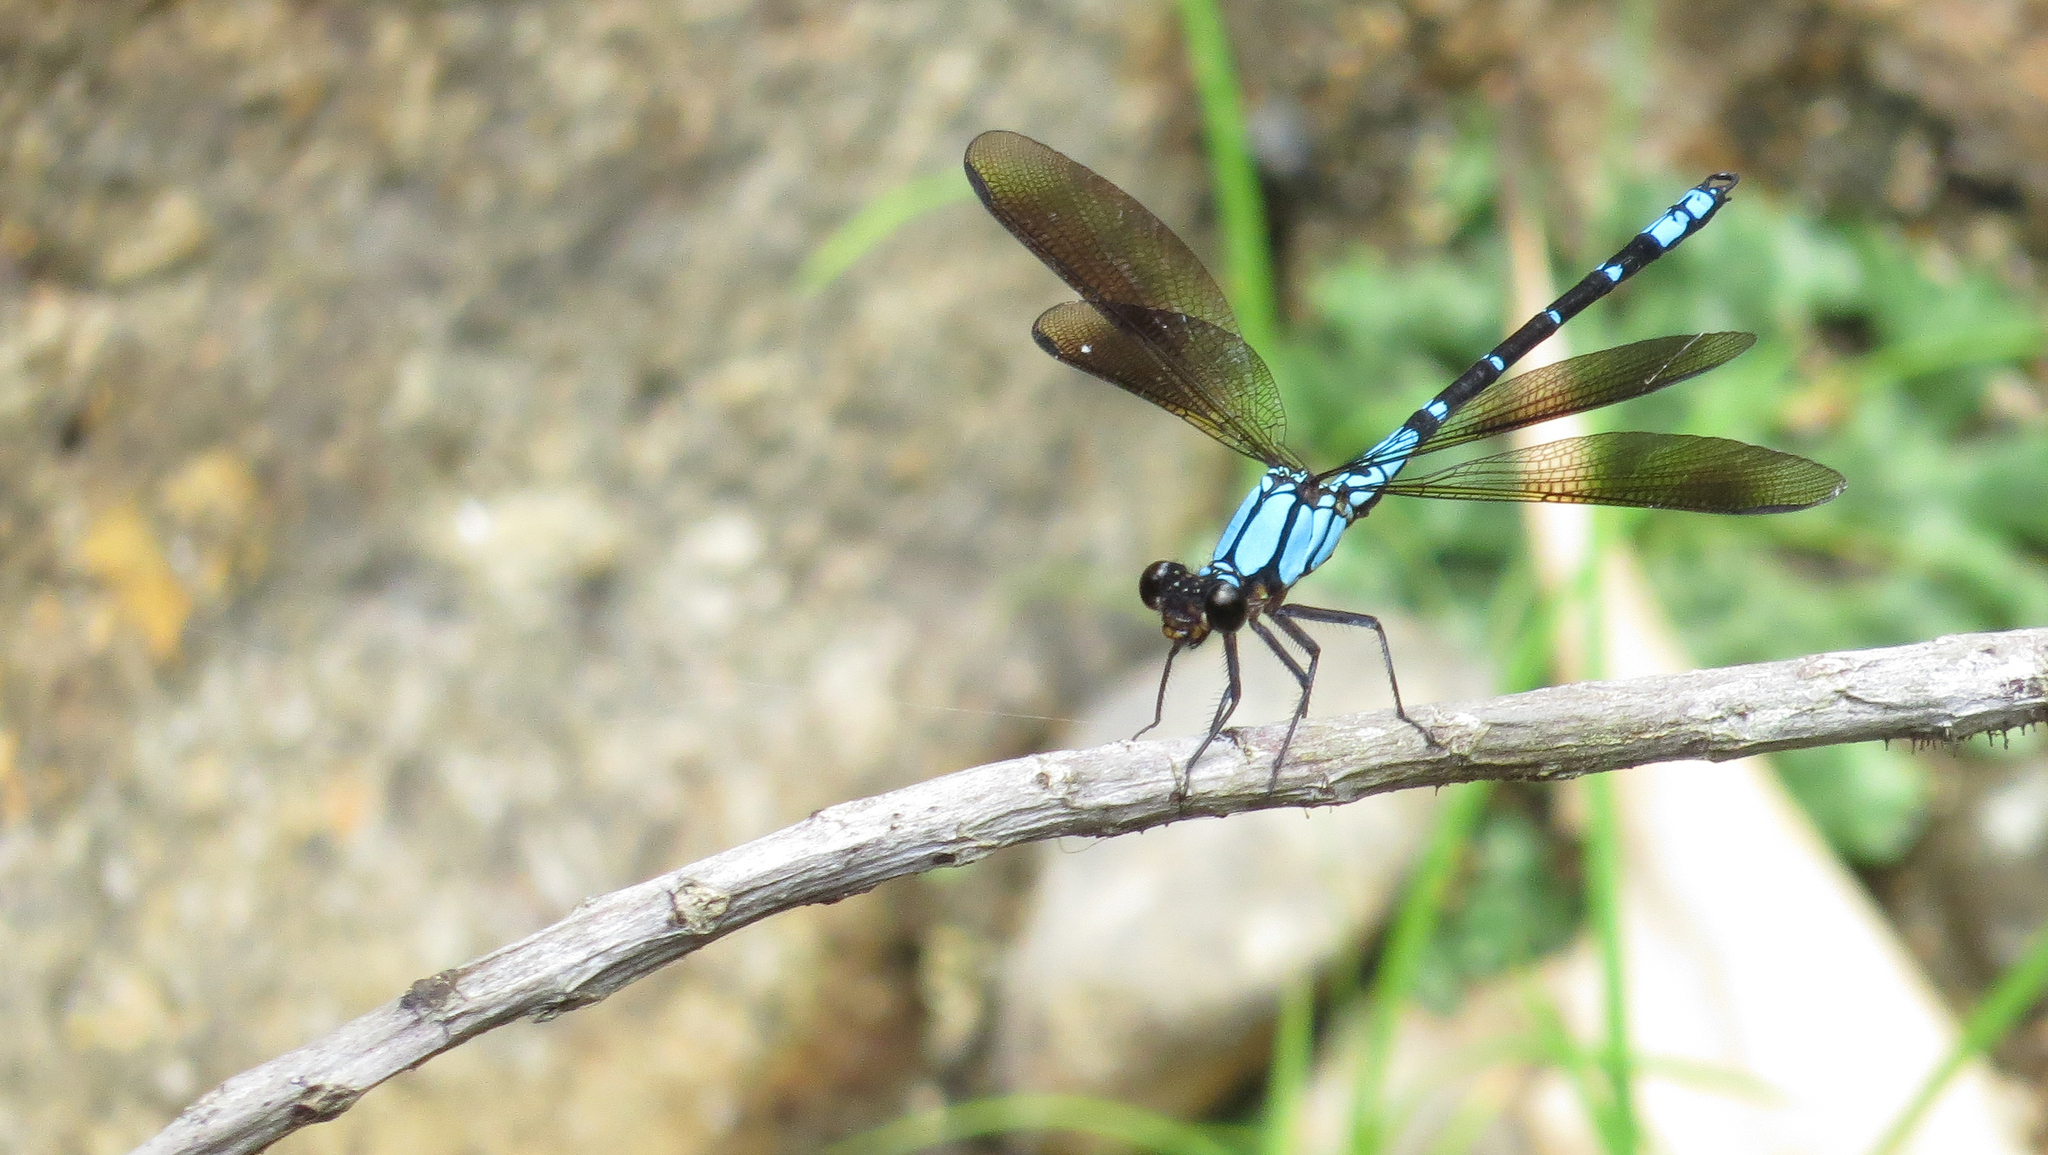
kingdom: Animalia
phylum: Arthropoda
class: Insecta
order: Odonata
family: Lestoideidae
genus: Diphlebia
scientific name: Diphlebia coerulescens
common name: Sapphire rockmaster
